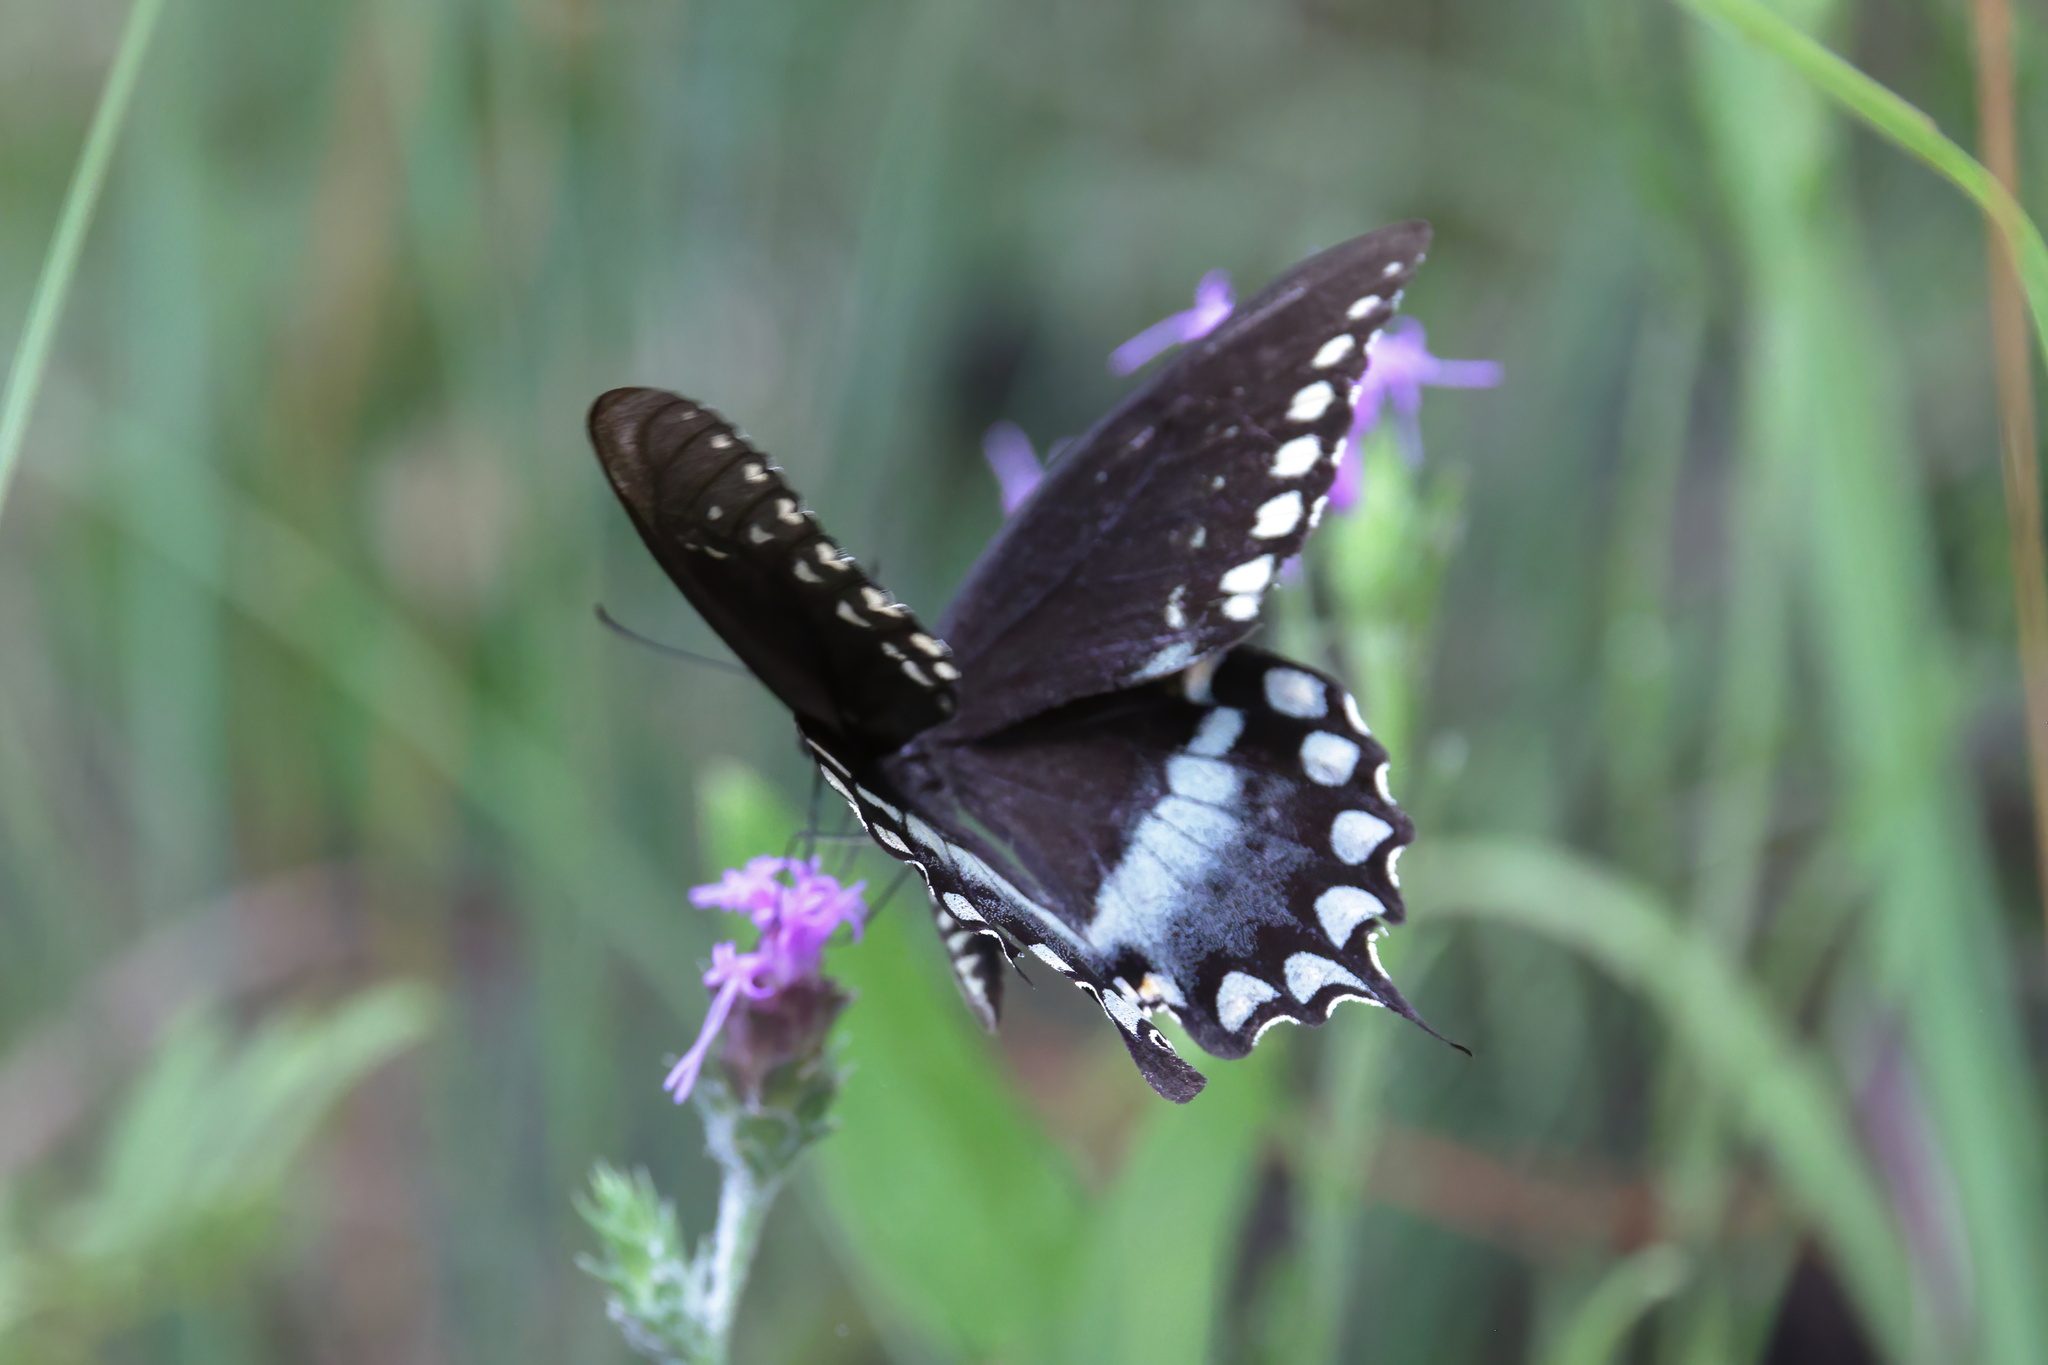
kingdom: Animalia
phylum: Arthropoda
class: Insecta
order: Lepidoptera
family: Papilionidae
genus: Papilio
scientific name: Papilio troilus
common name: Spicebush swallowtail
